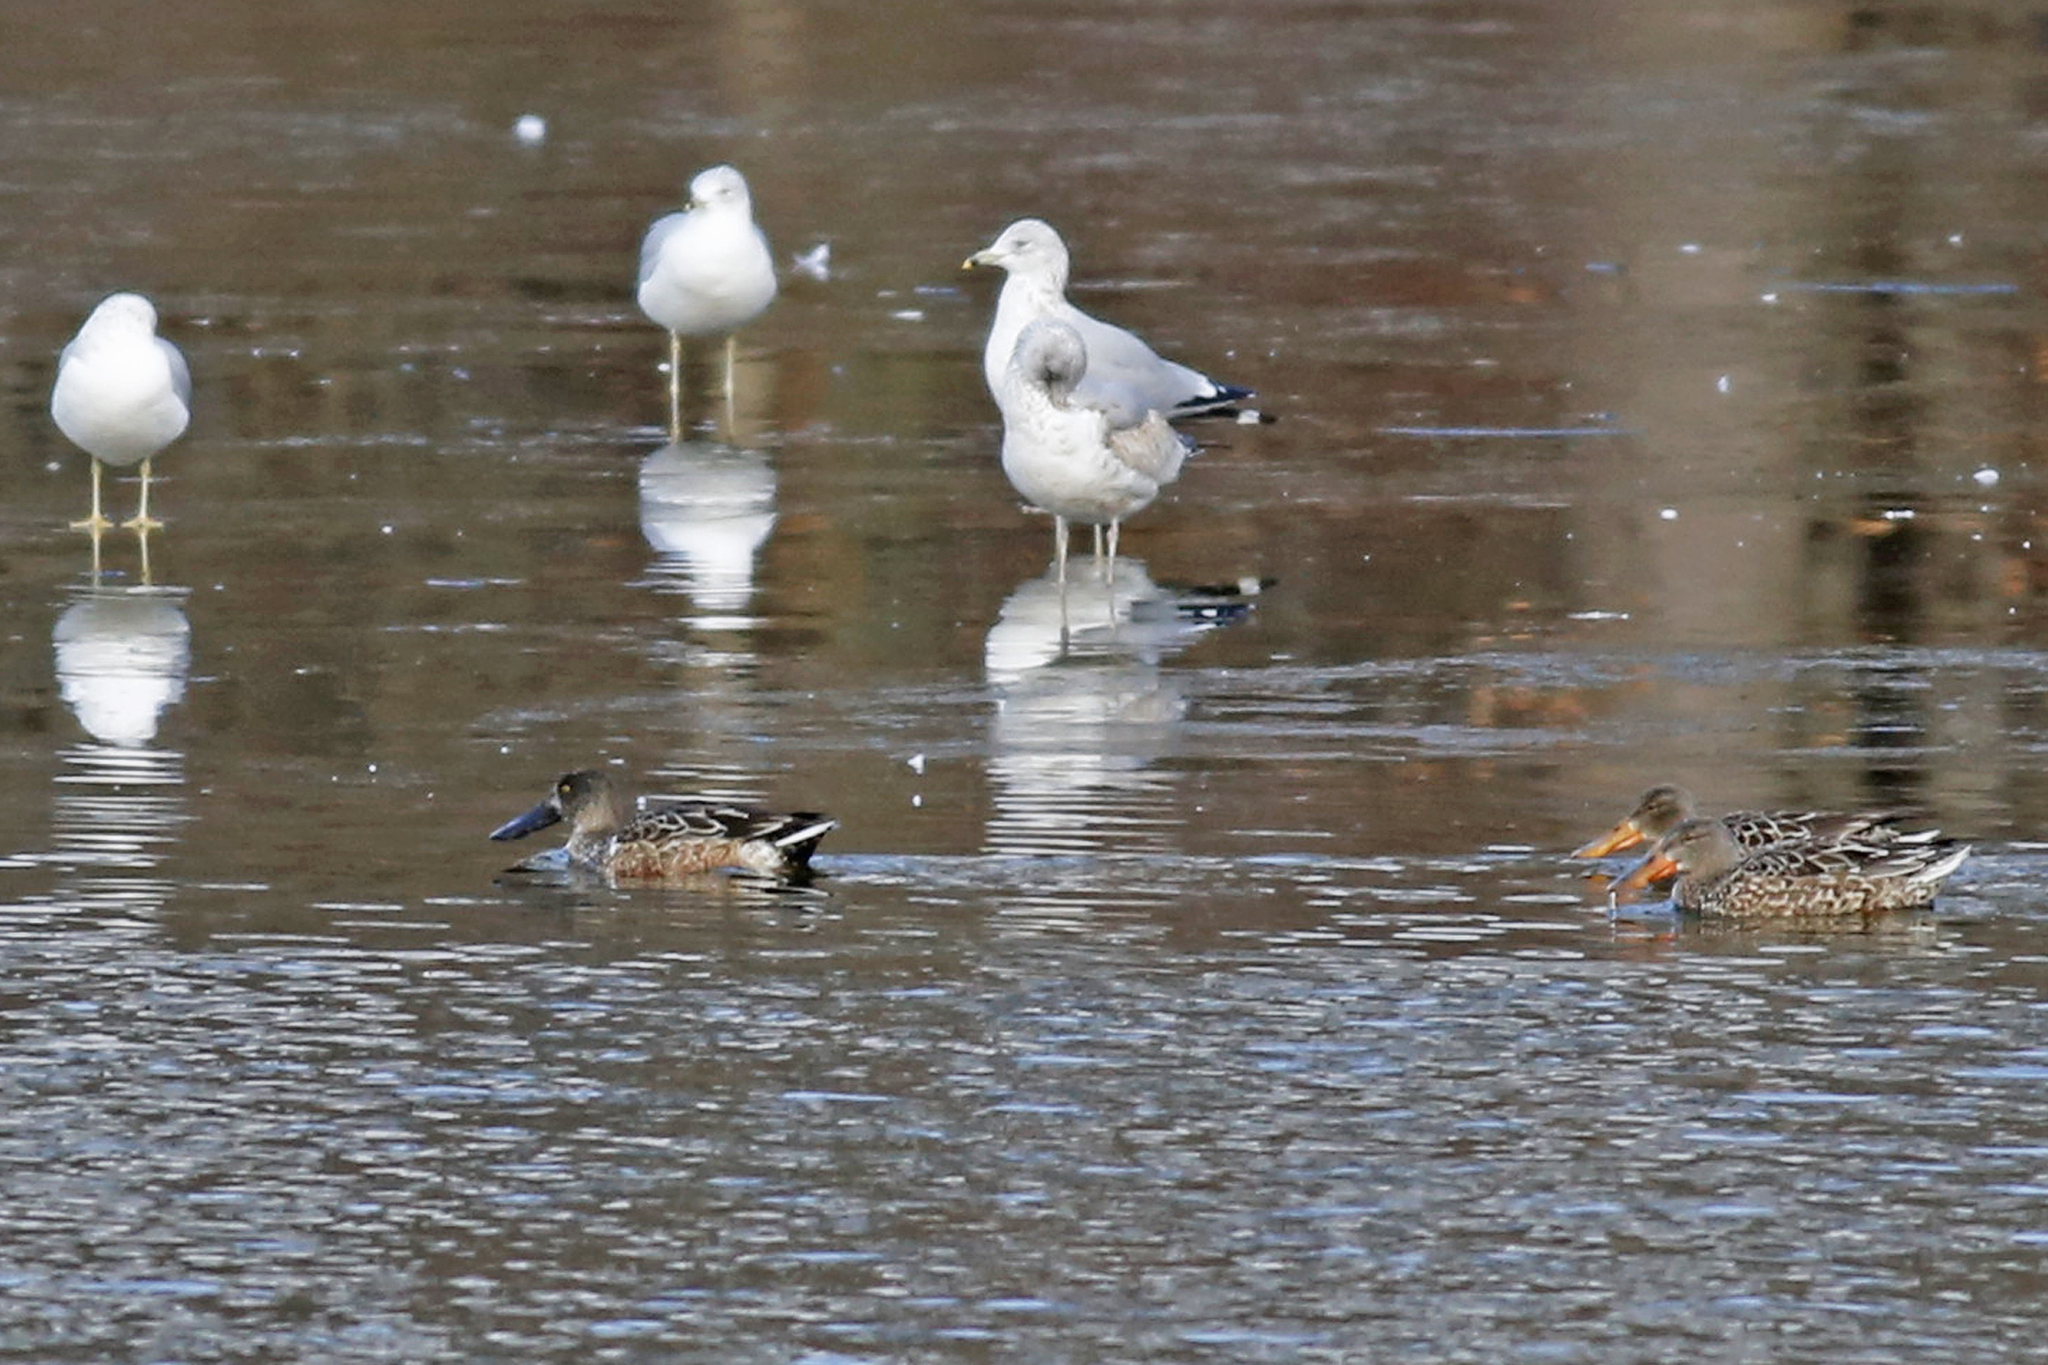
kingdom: Animalia
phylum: Chordata
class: Aves
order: Anseriformes
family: Anatidae
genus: Spatula
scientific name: Spatula clypeata
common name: Northern shoveler
